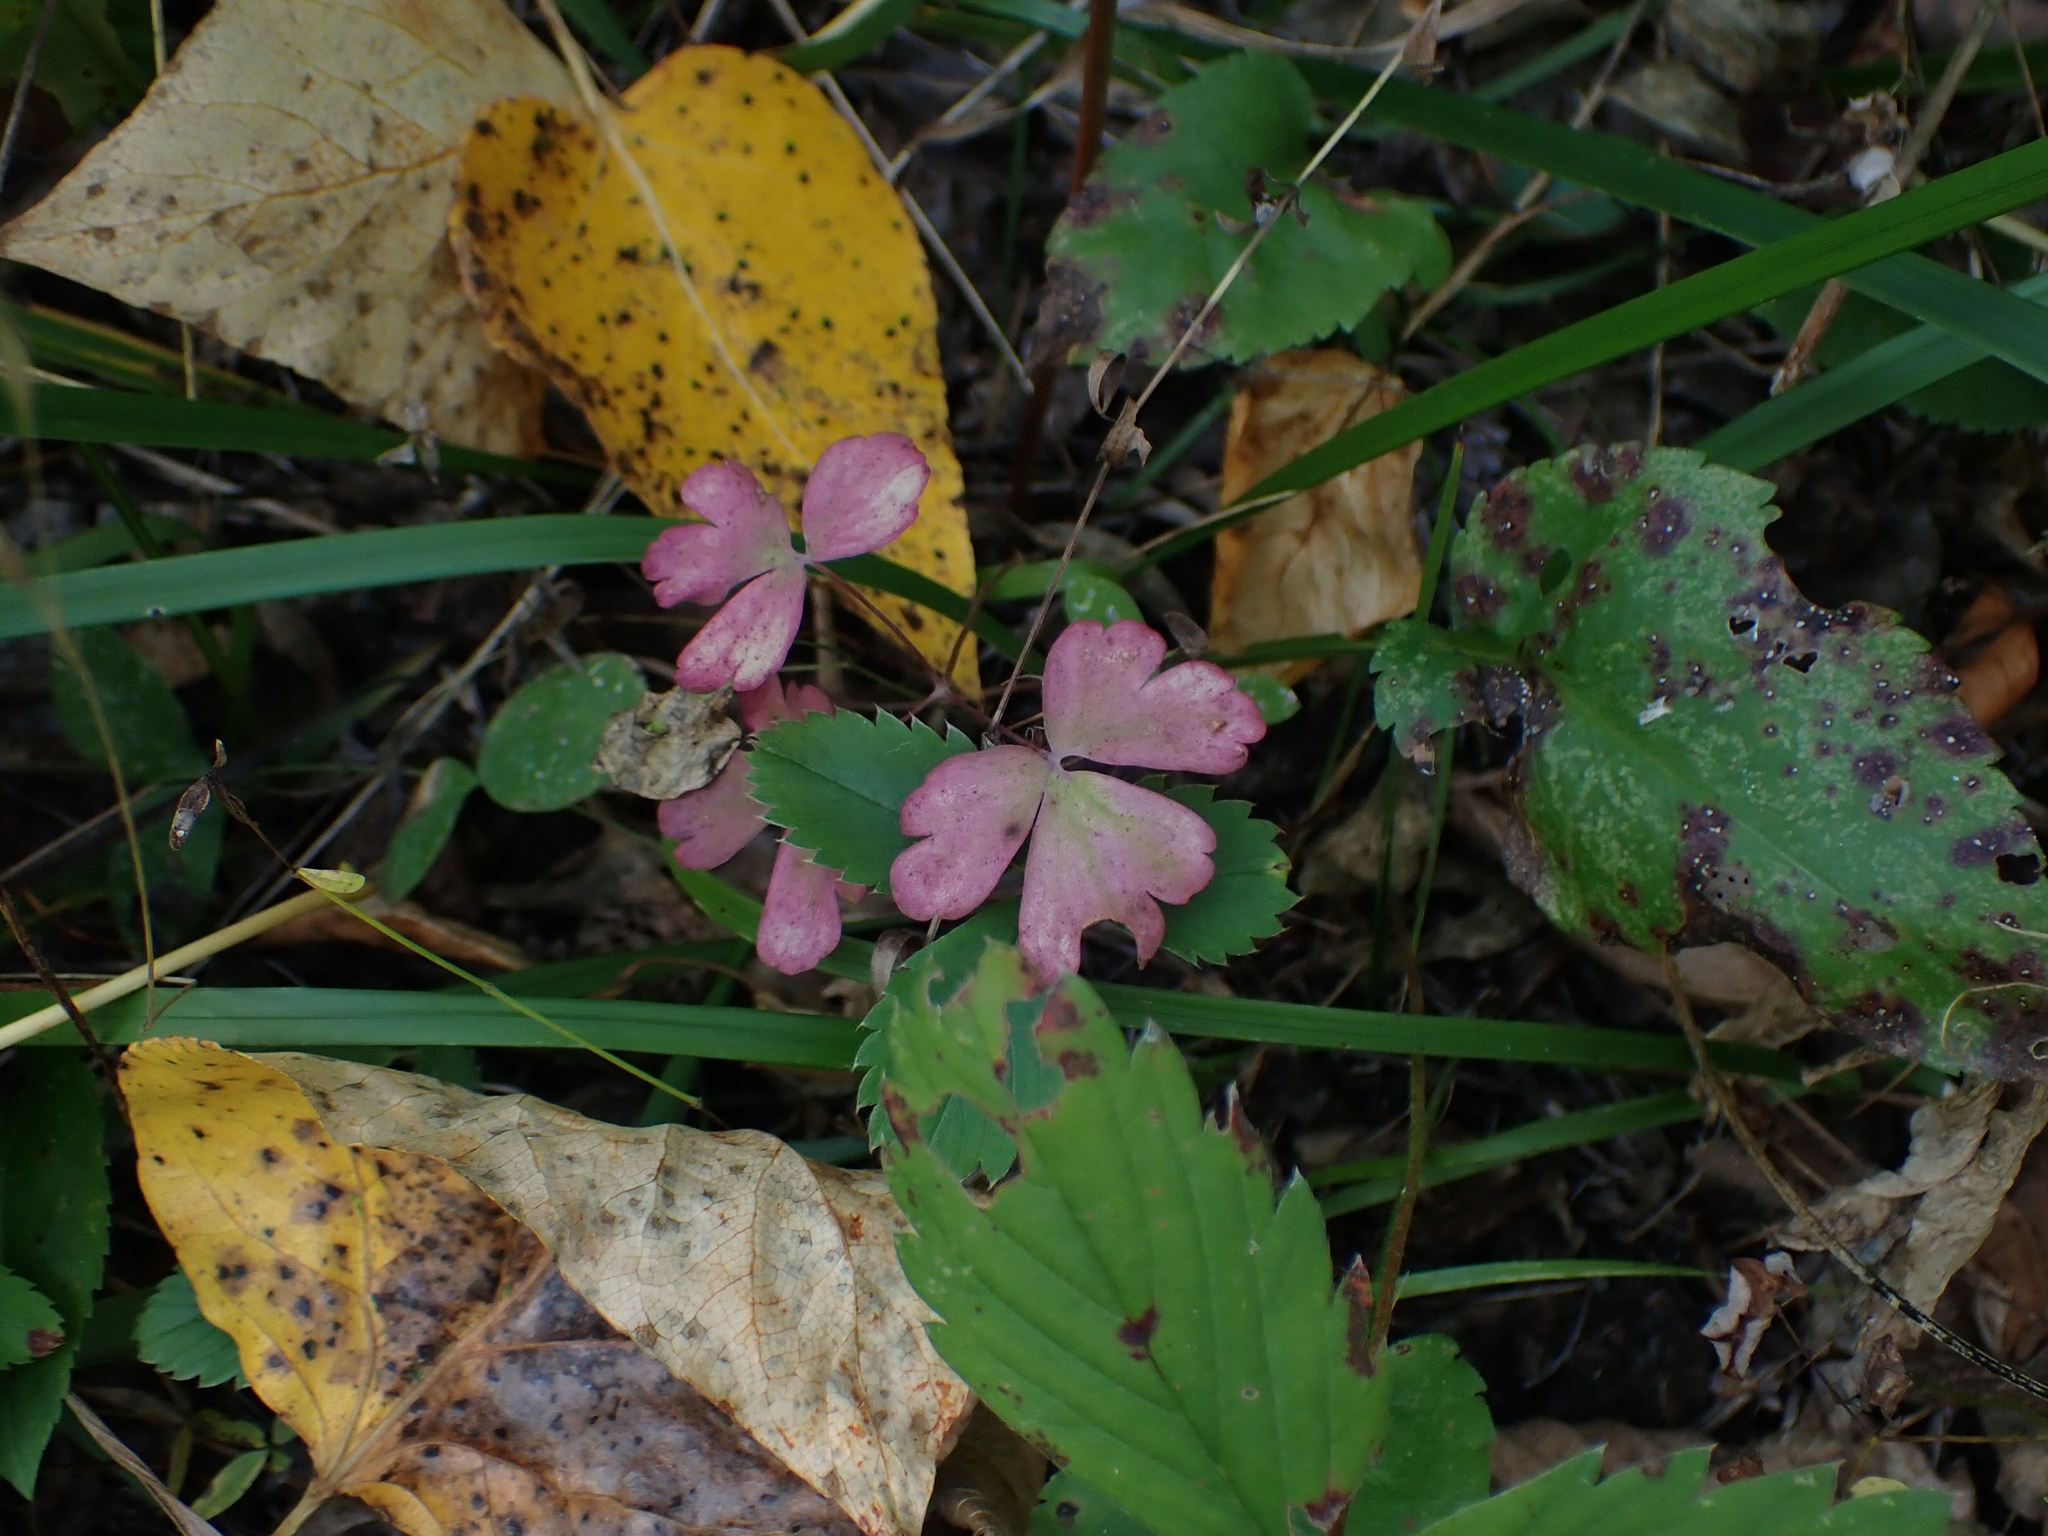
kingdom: Plantae
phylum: Tracheophyta
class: Magnoliopsida
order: Ranunculales
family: Ranunculaceae
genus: Aquilegia
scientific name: Aquilegia canadensis
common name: American columbine
